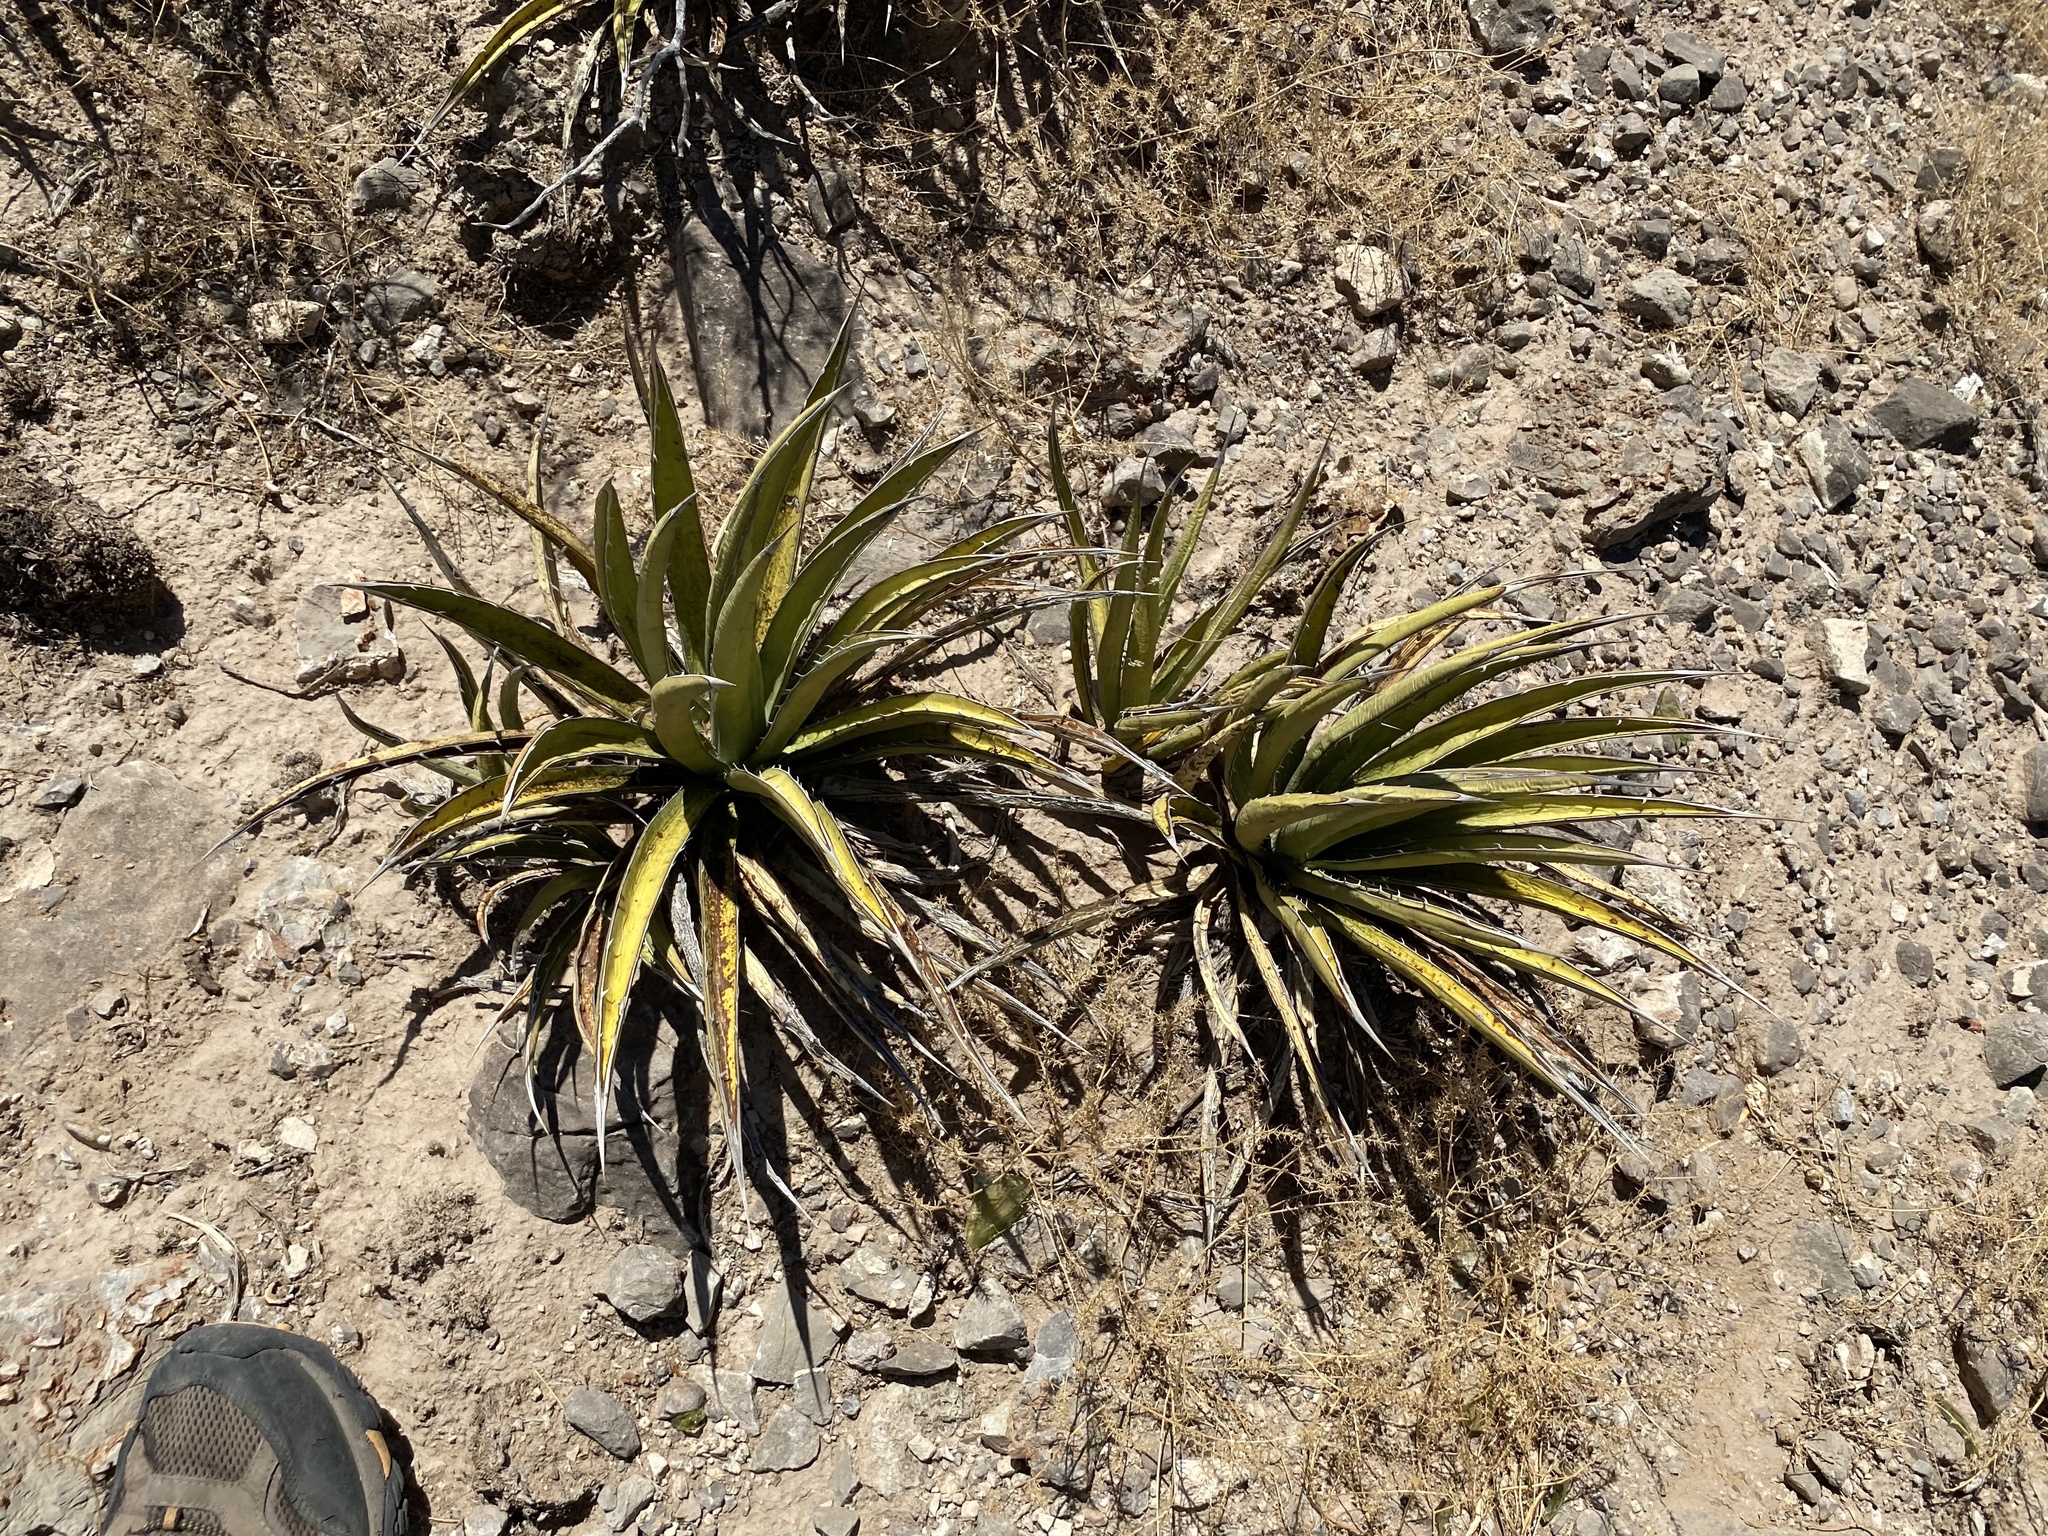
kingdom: Plantae
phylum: Tracheophyta
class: Liliopsida
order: Asparagales
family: Asparagaceae
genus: Agave
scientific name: Agave lechuguilla
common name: Lecheguilla agave
